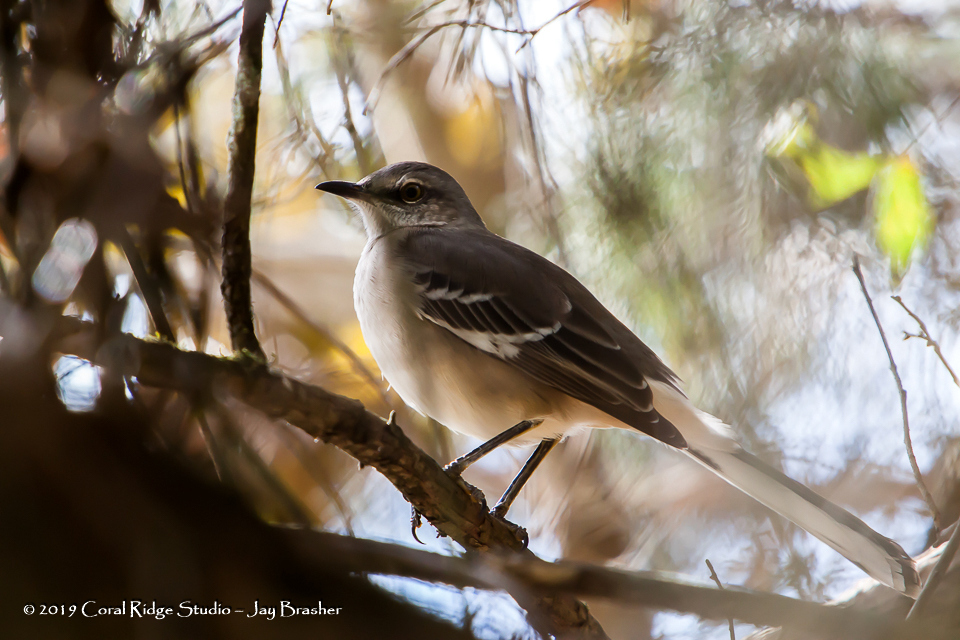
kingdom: Animalia
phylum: Chordata
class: Aves
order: Passeriformes
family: Mimidae
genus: Mimus
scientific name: Mimus polyglottos
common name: Northern mockingbird
